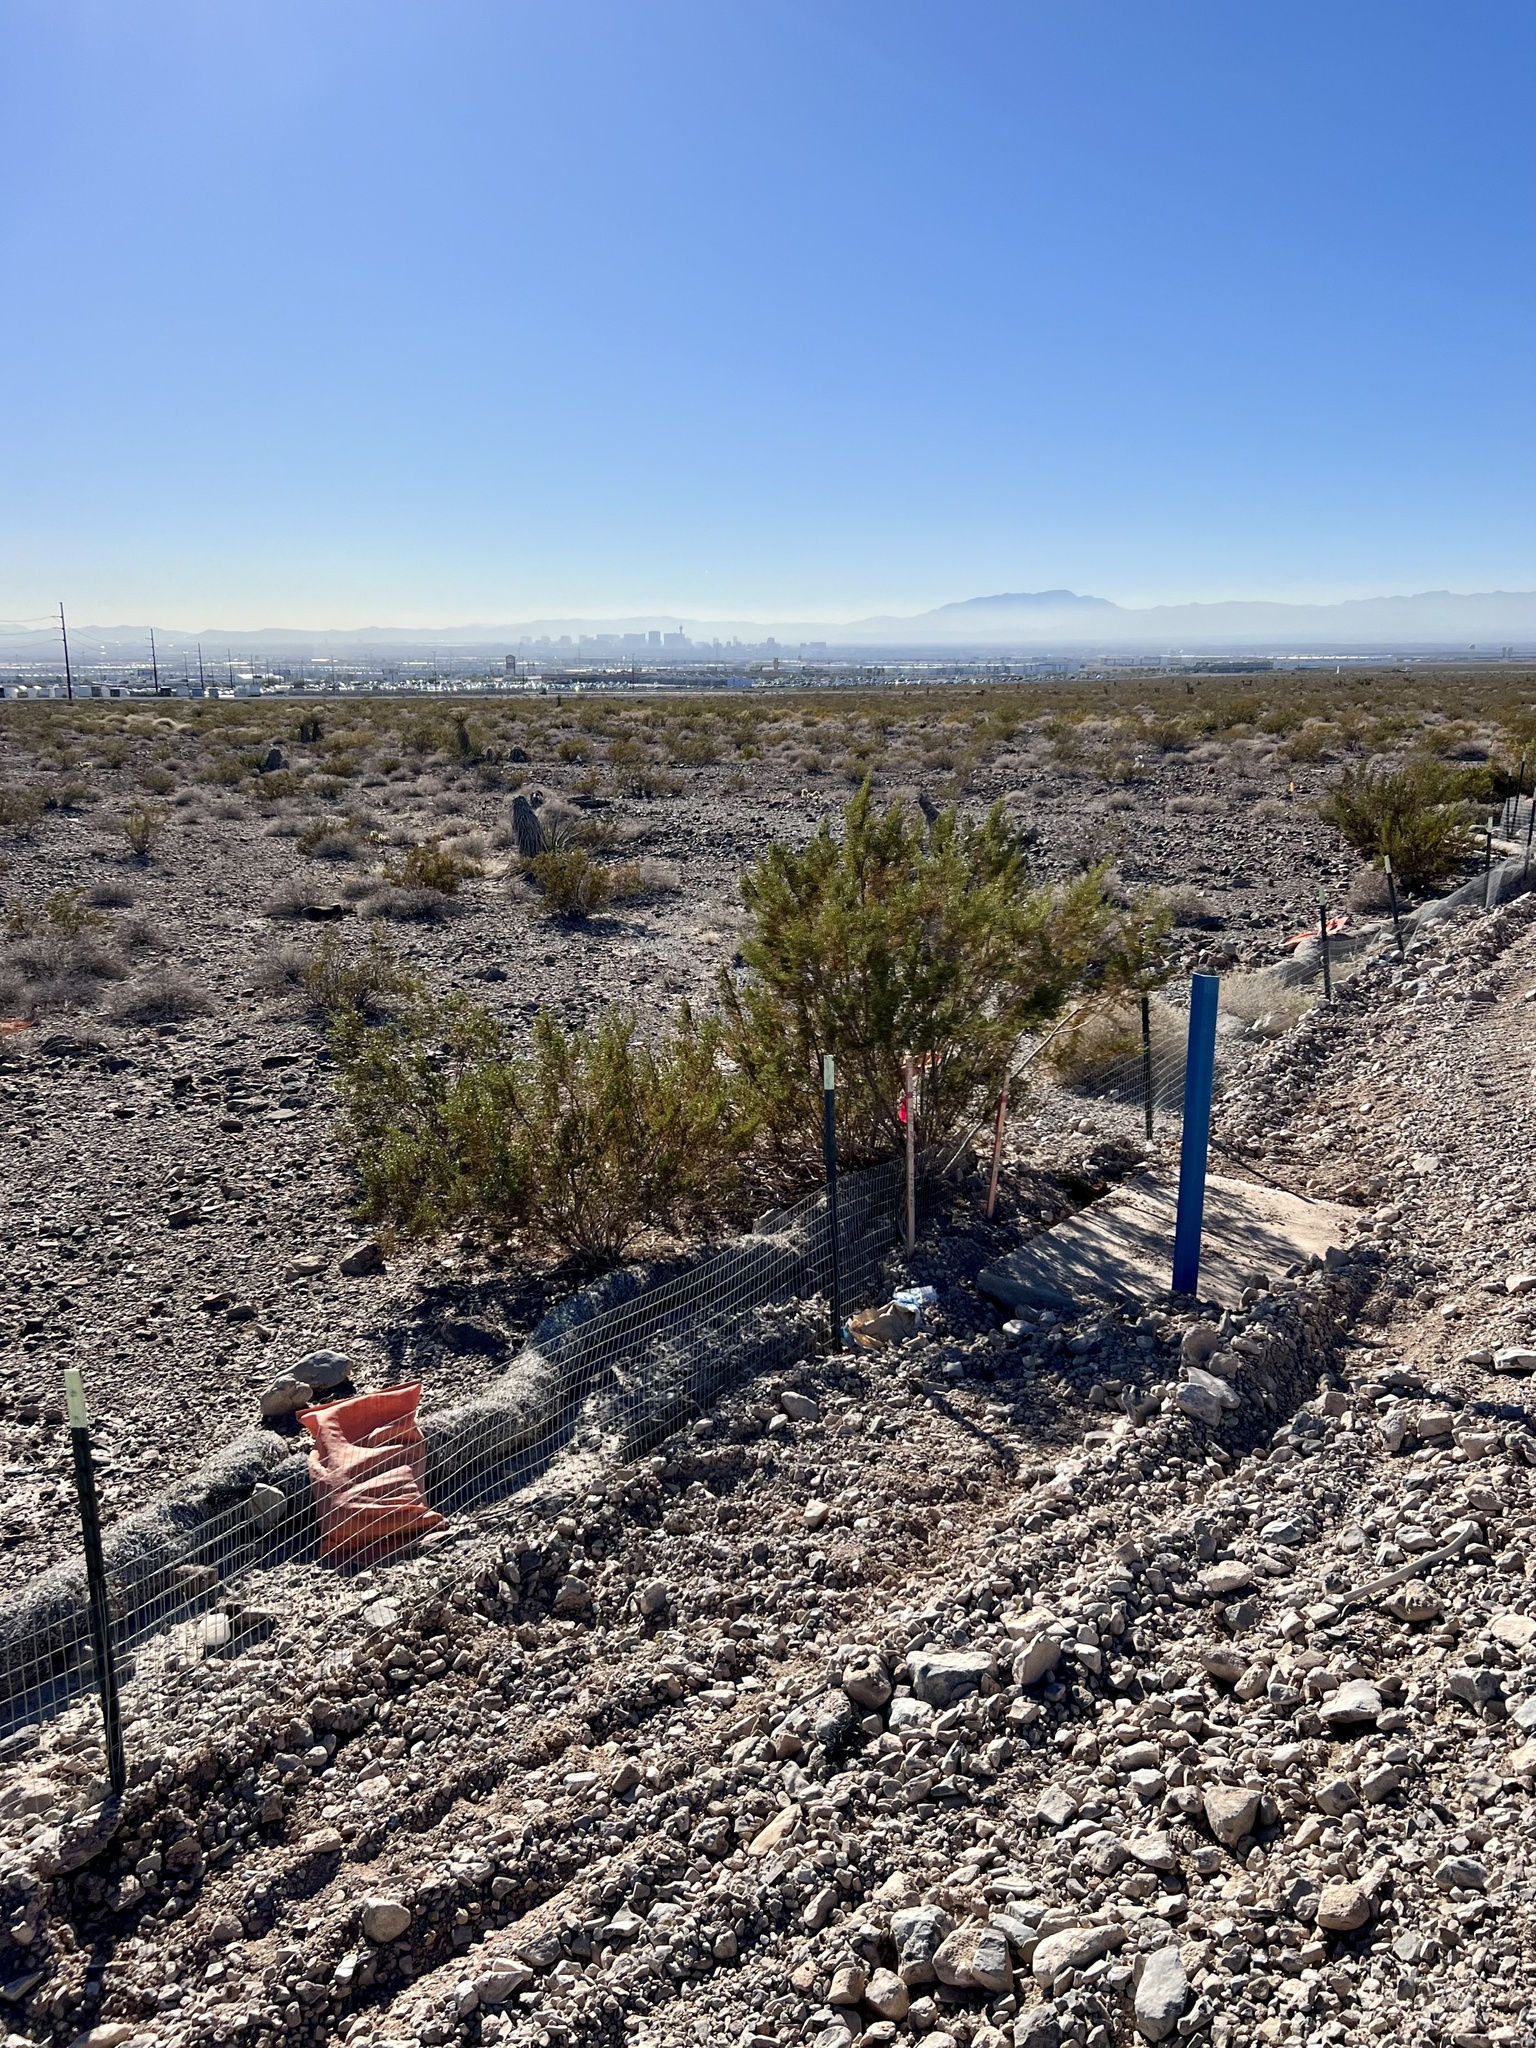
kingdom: Plantae
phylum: Tracheophyta
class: Magnoliopsida
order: Zygophyllales
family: Zygophyllaceae
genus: Larrea
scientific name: Larrea tridentata
